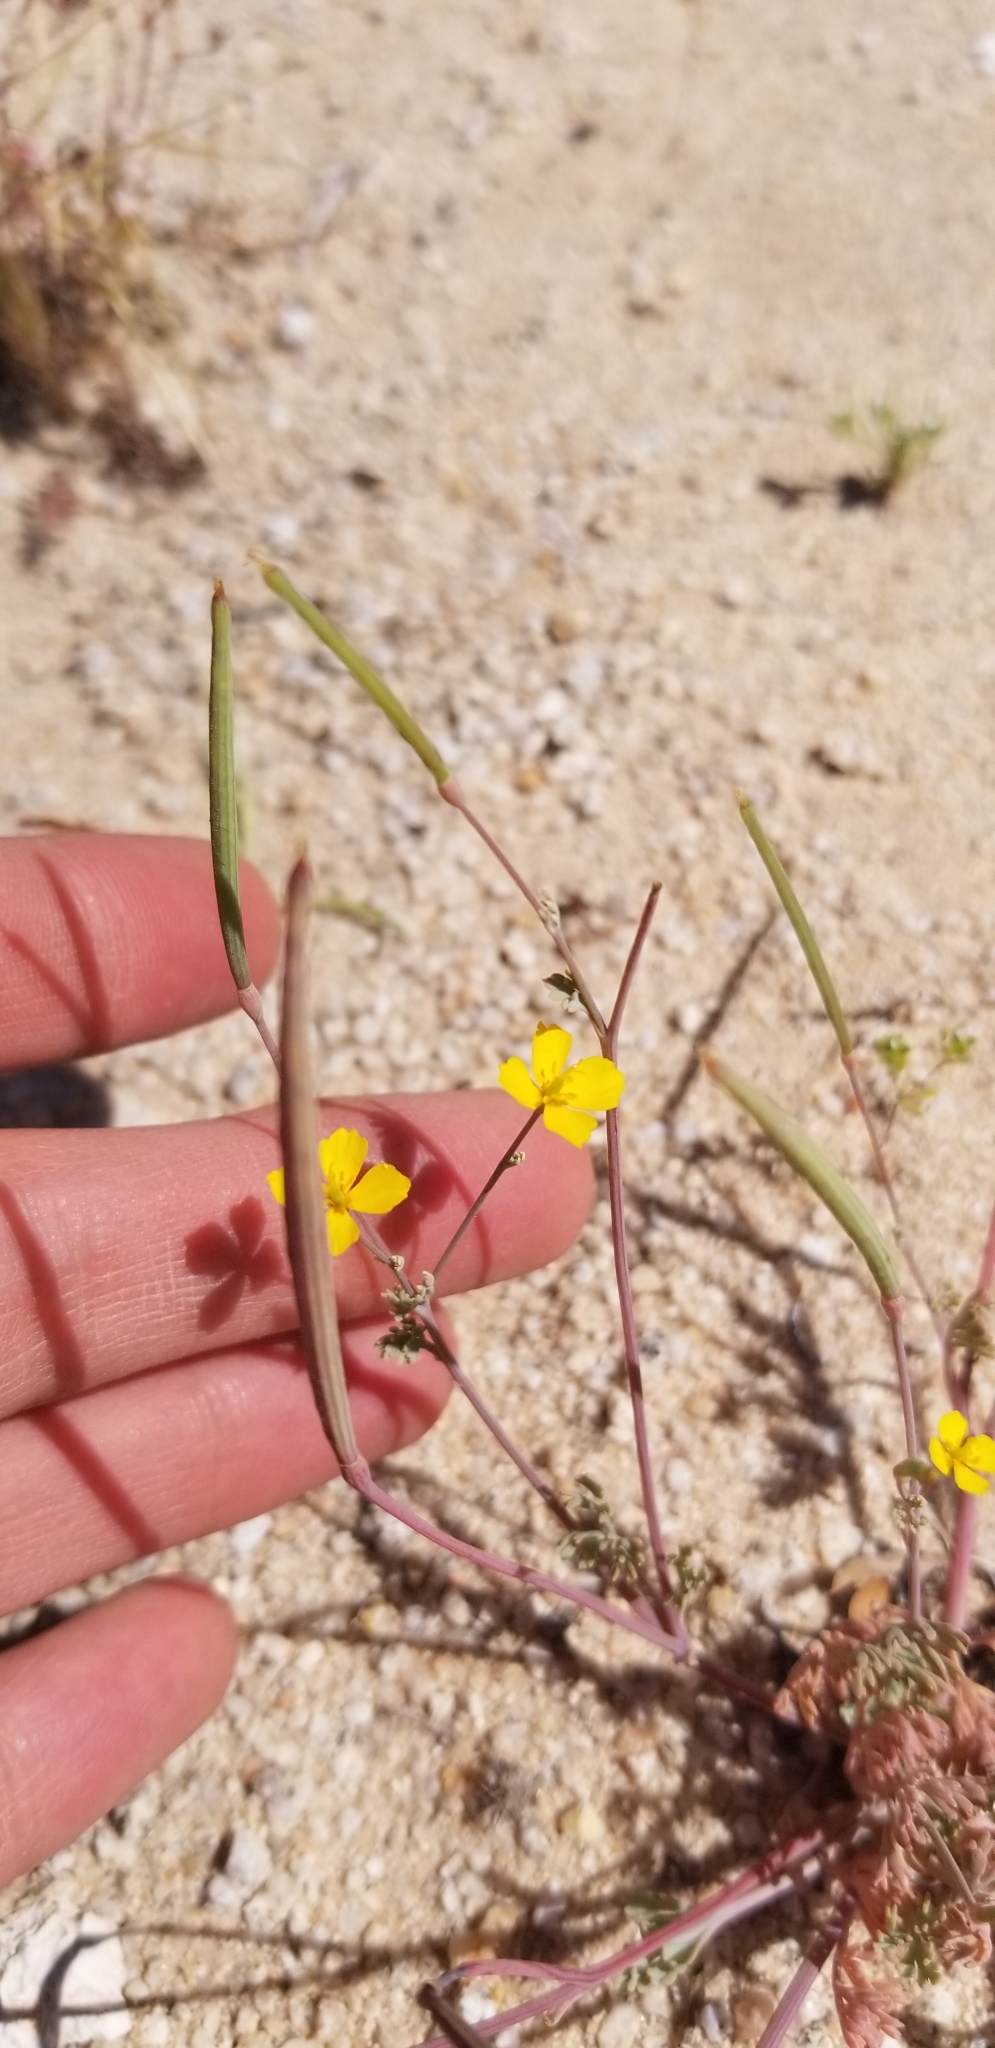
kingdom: Plantae
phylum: Tracheophyta
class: Magnoliopsida
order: Ranunculales
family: Papaveraceae
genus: Eschscholzia
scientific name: Eschscholzia minutiflora
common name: Small-flower california-poppy
